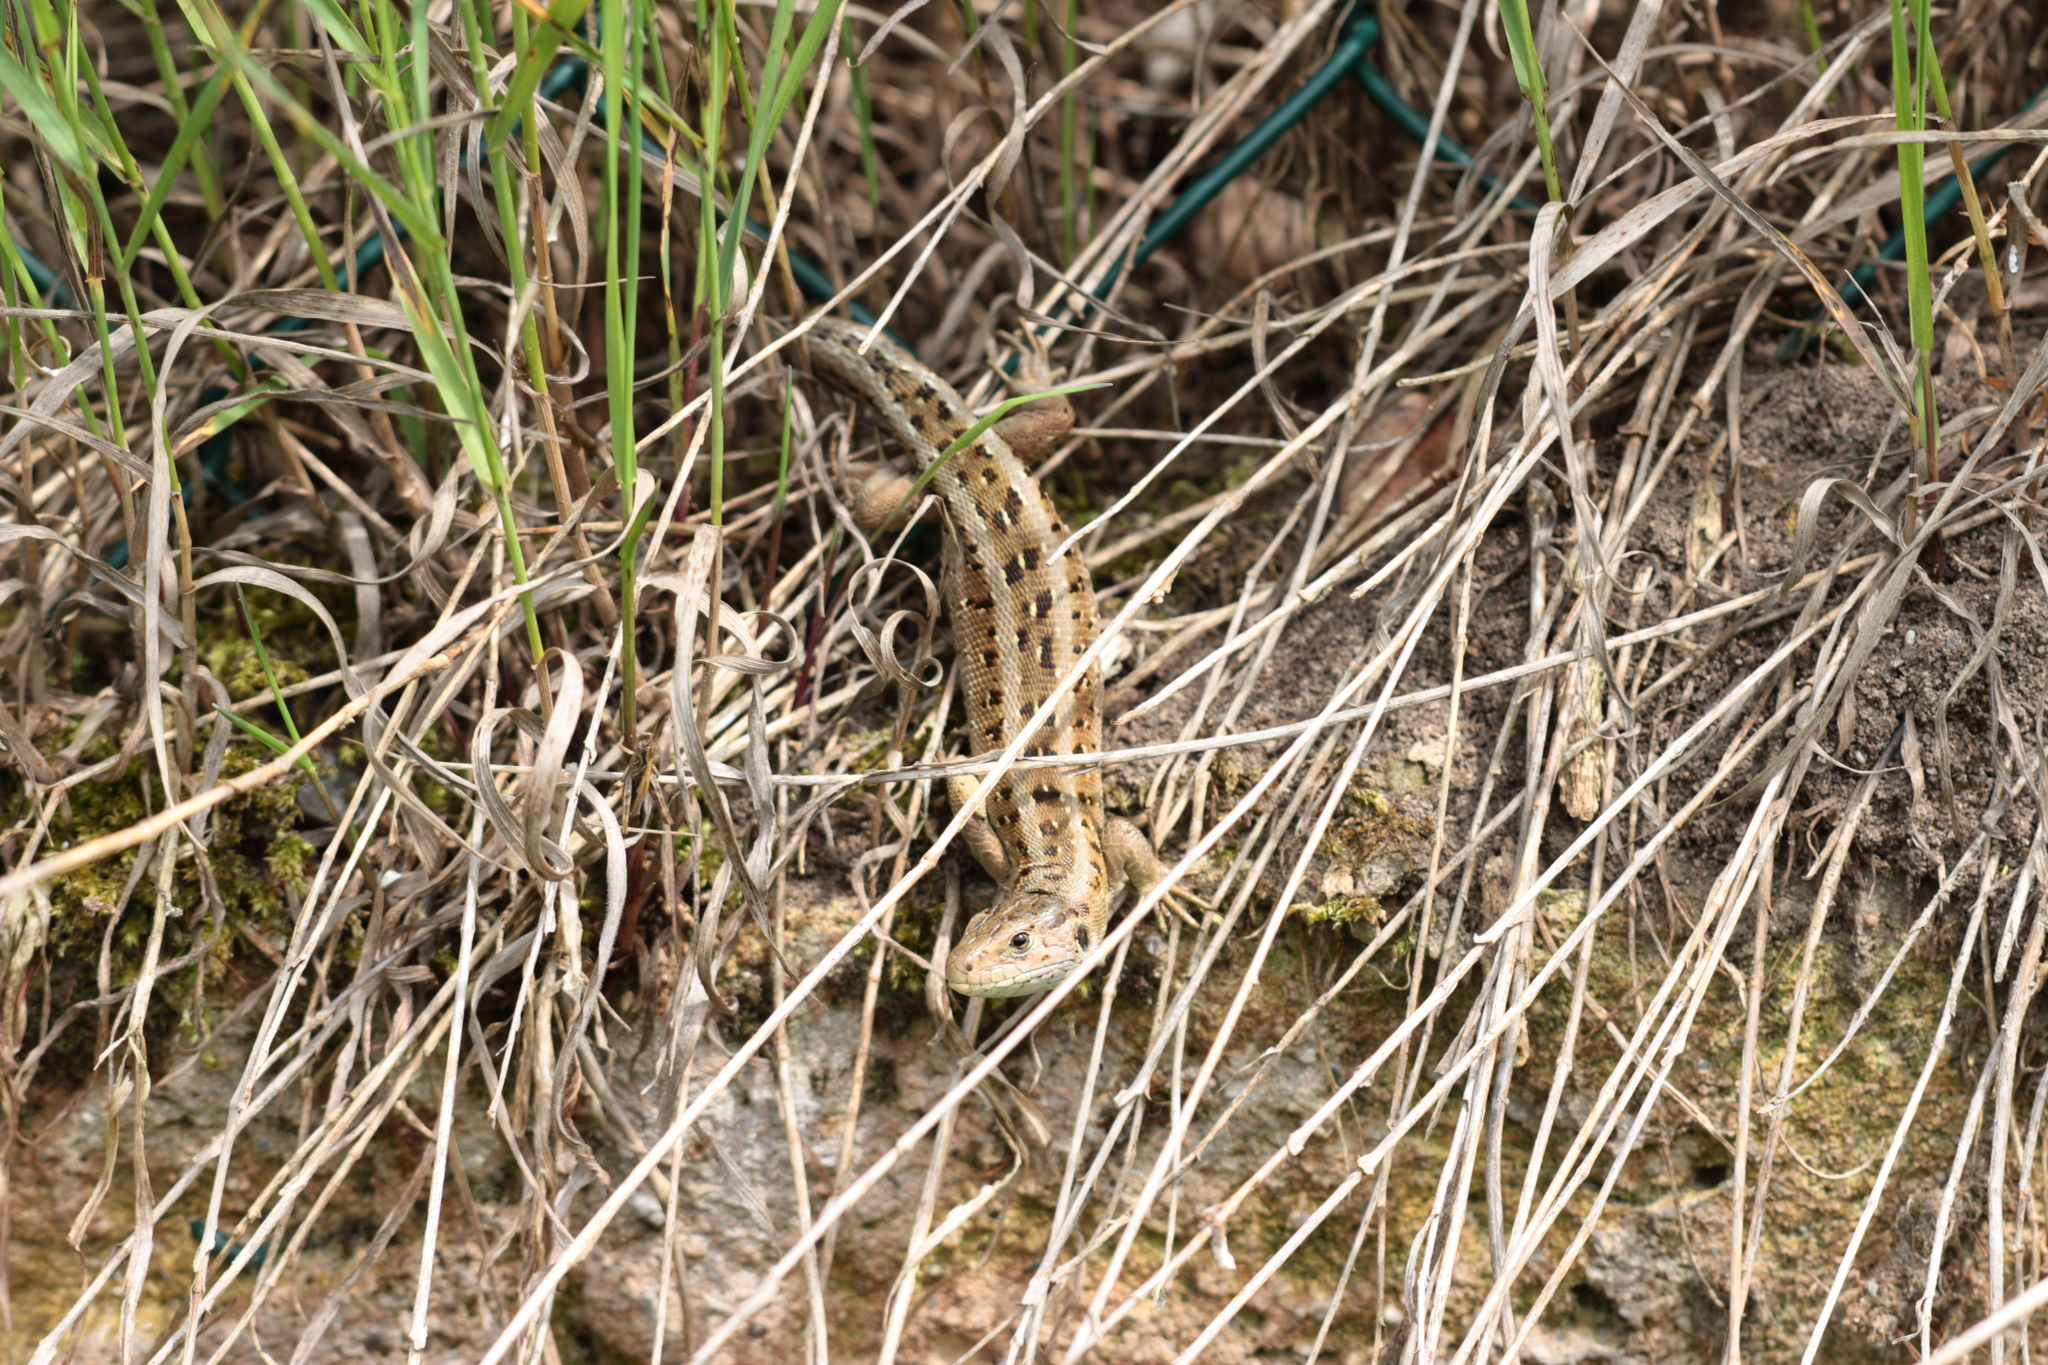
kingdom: Animalia
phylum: Chordata
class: Squamata
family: Lacertidae
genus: Lacerta
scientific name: Lacerta agilis
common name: Sand lizard
